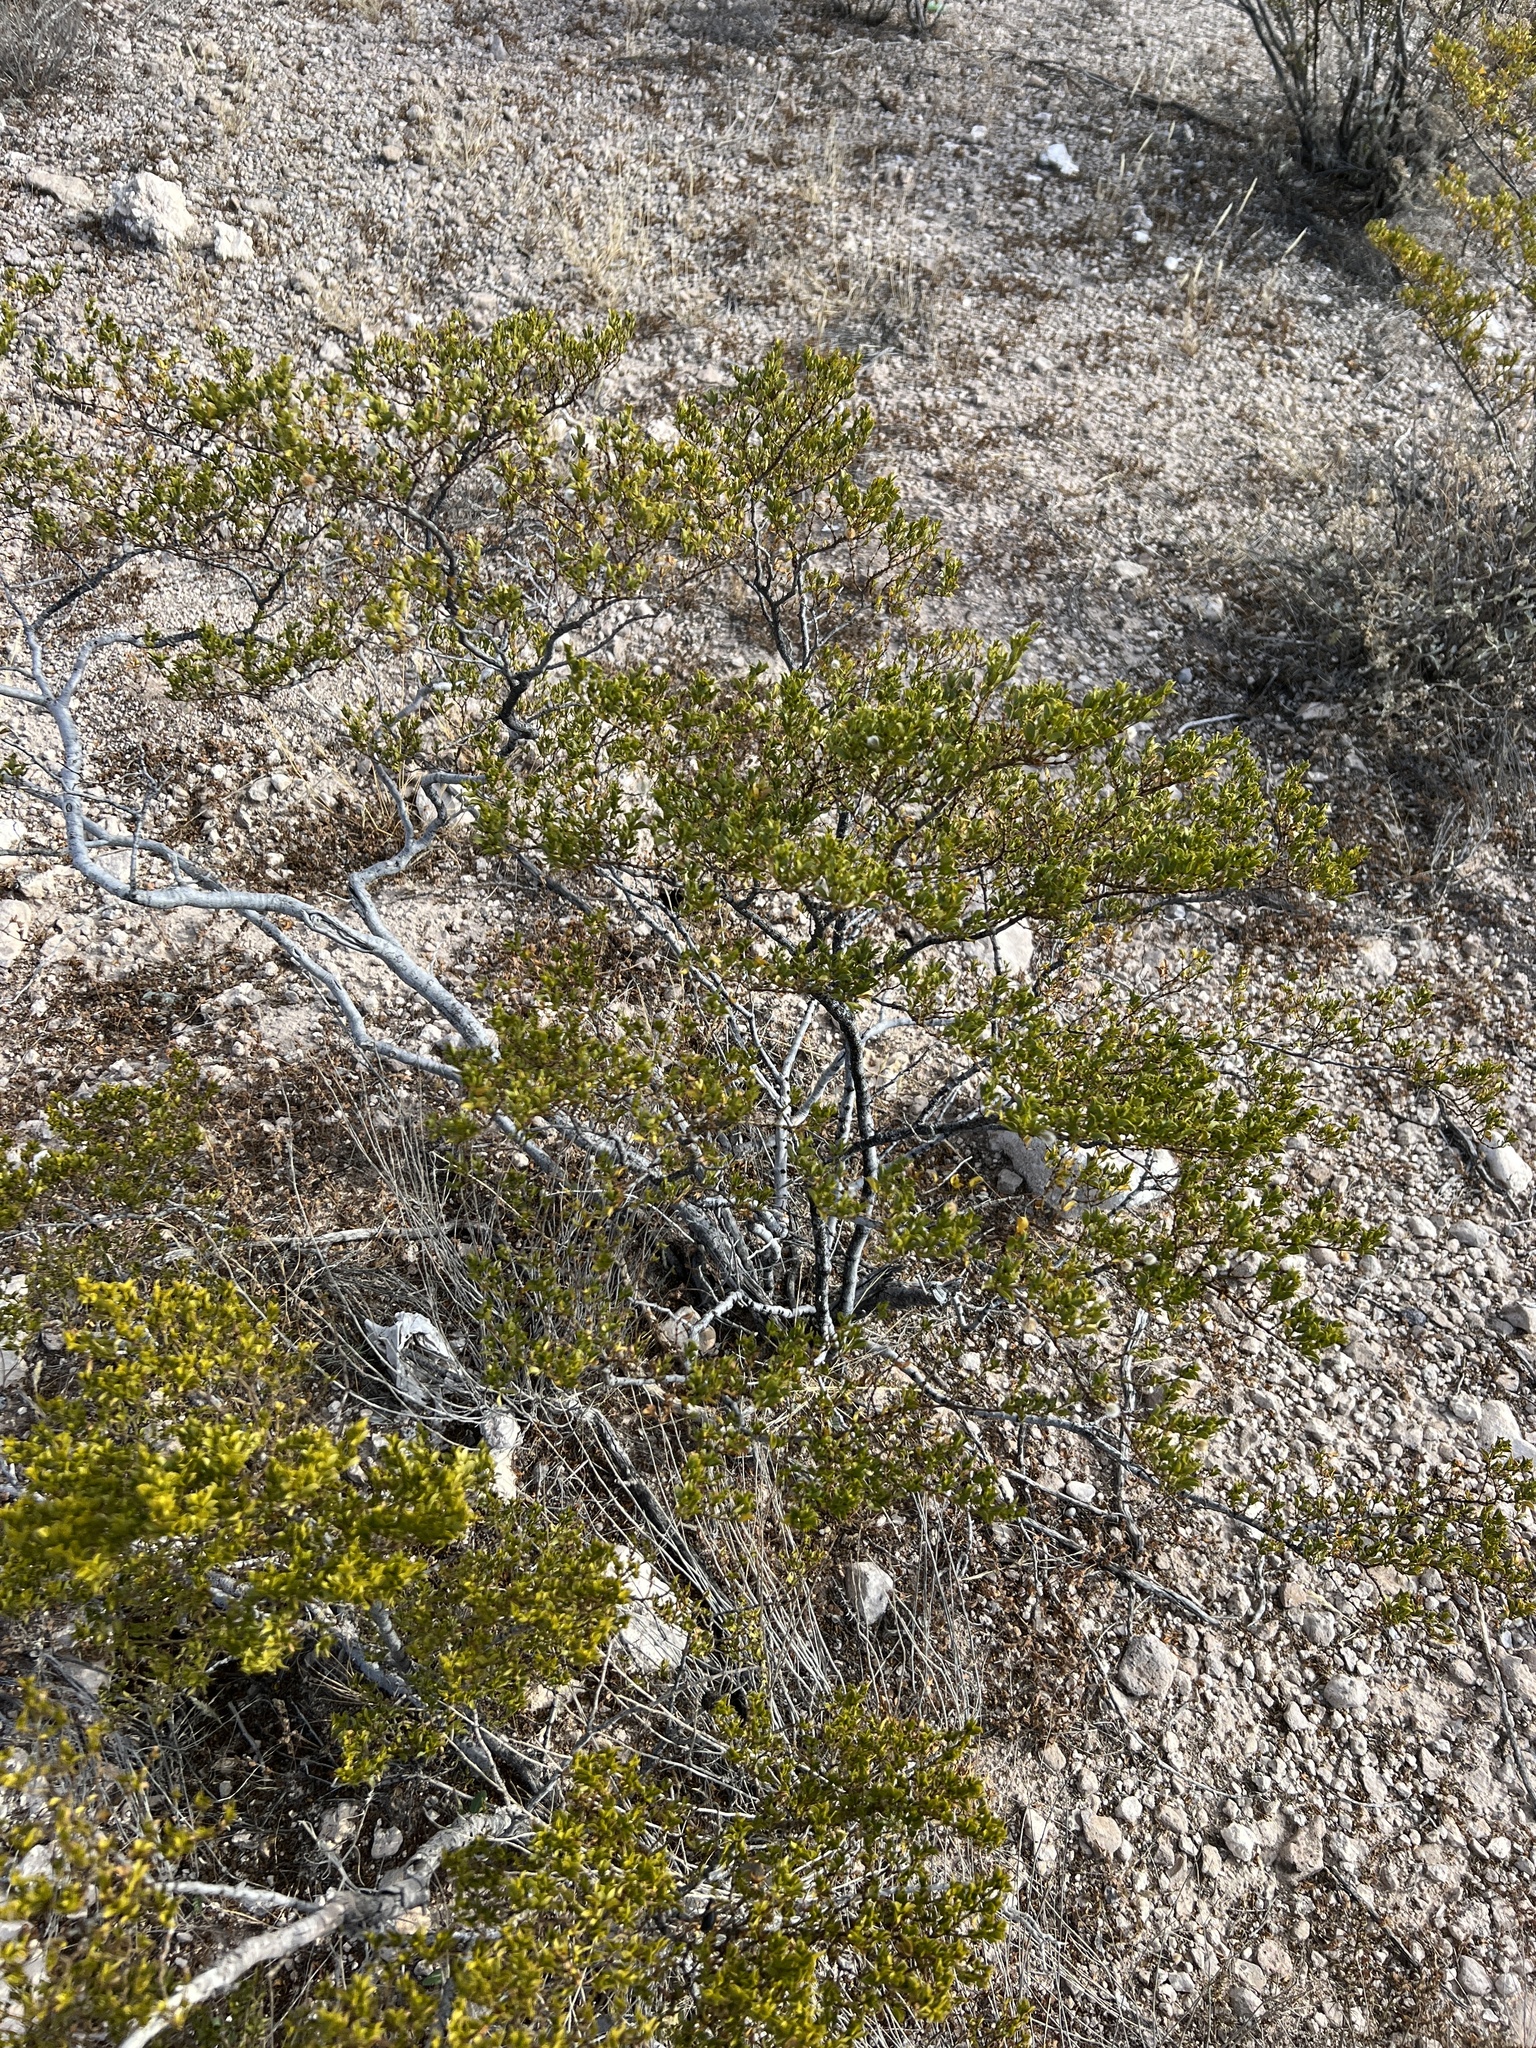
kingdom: Plantae
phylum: Tracheophyta
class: Magnoliopsida
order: Zygophyllales
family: Zygophyllaceae
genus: Larrea
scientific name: Larrea tridentata
